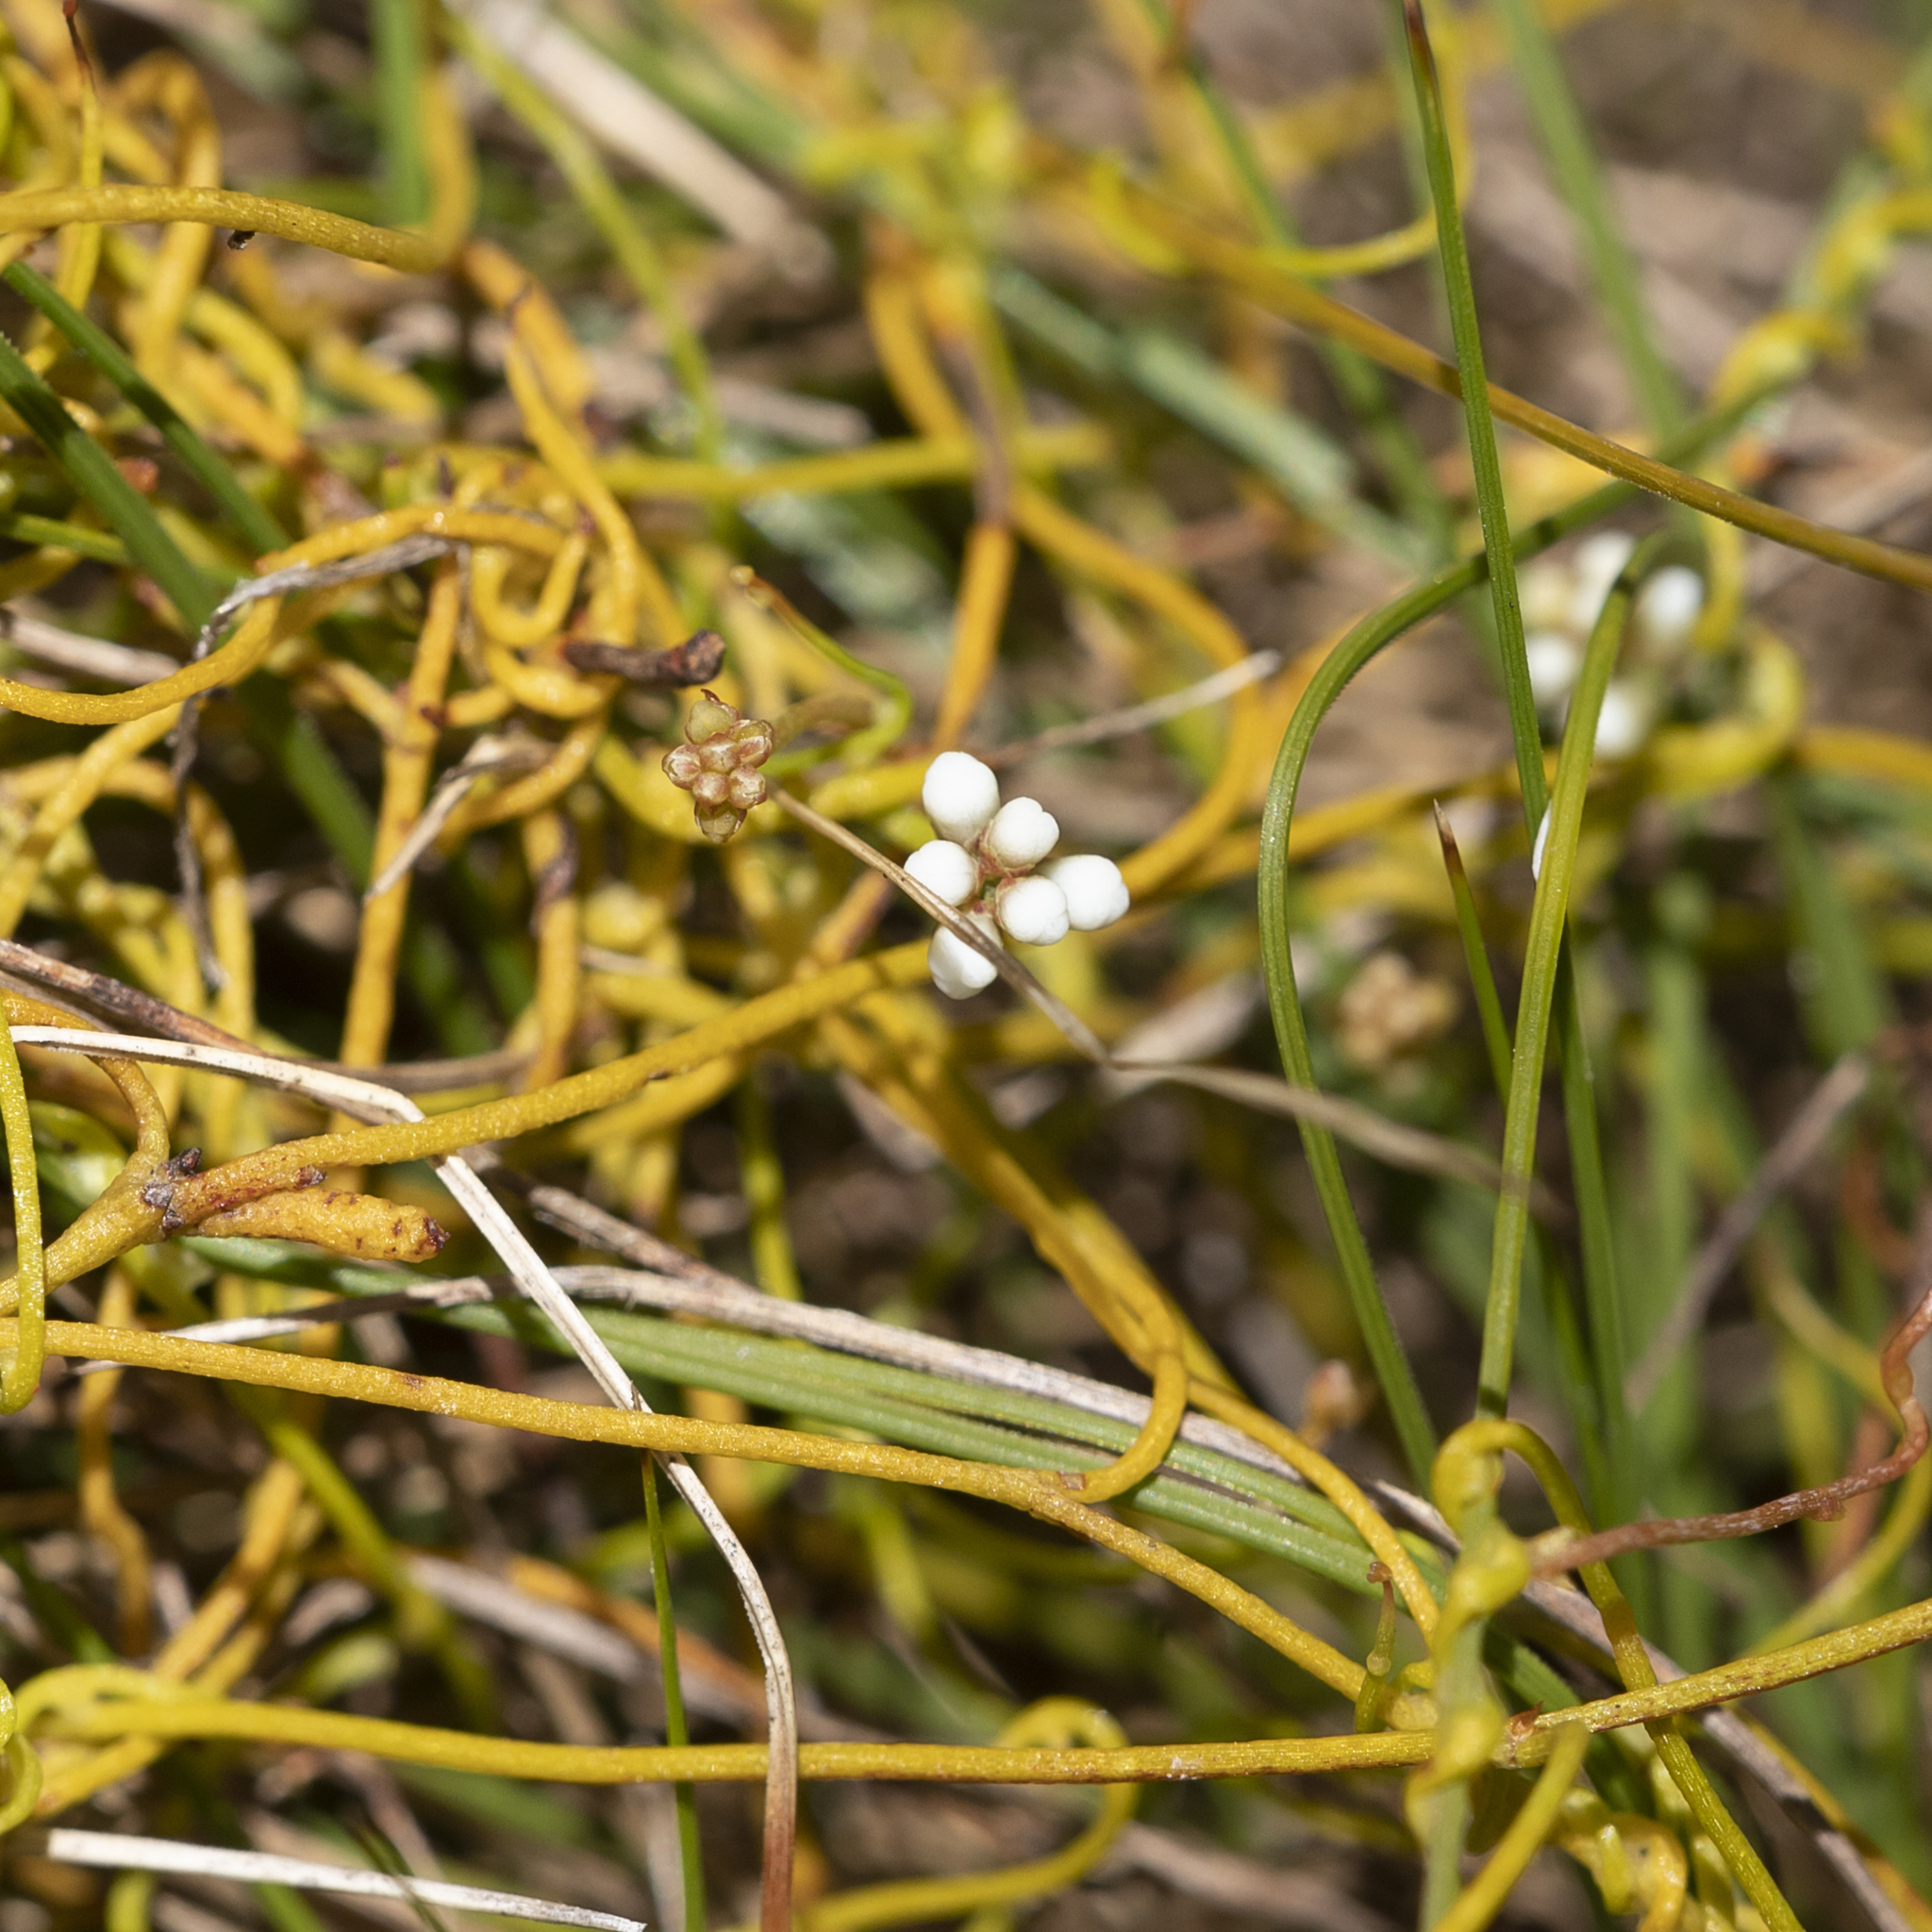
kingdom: Plantae
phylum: Tracheophyta
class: Magnoliopsida
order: Laurales
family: Lauraceae
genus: Cassytha
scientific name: Cassytha glabella
